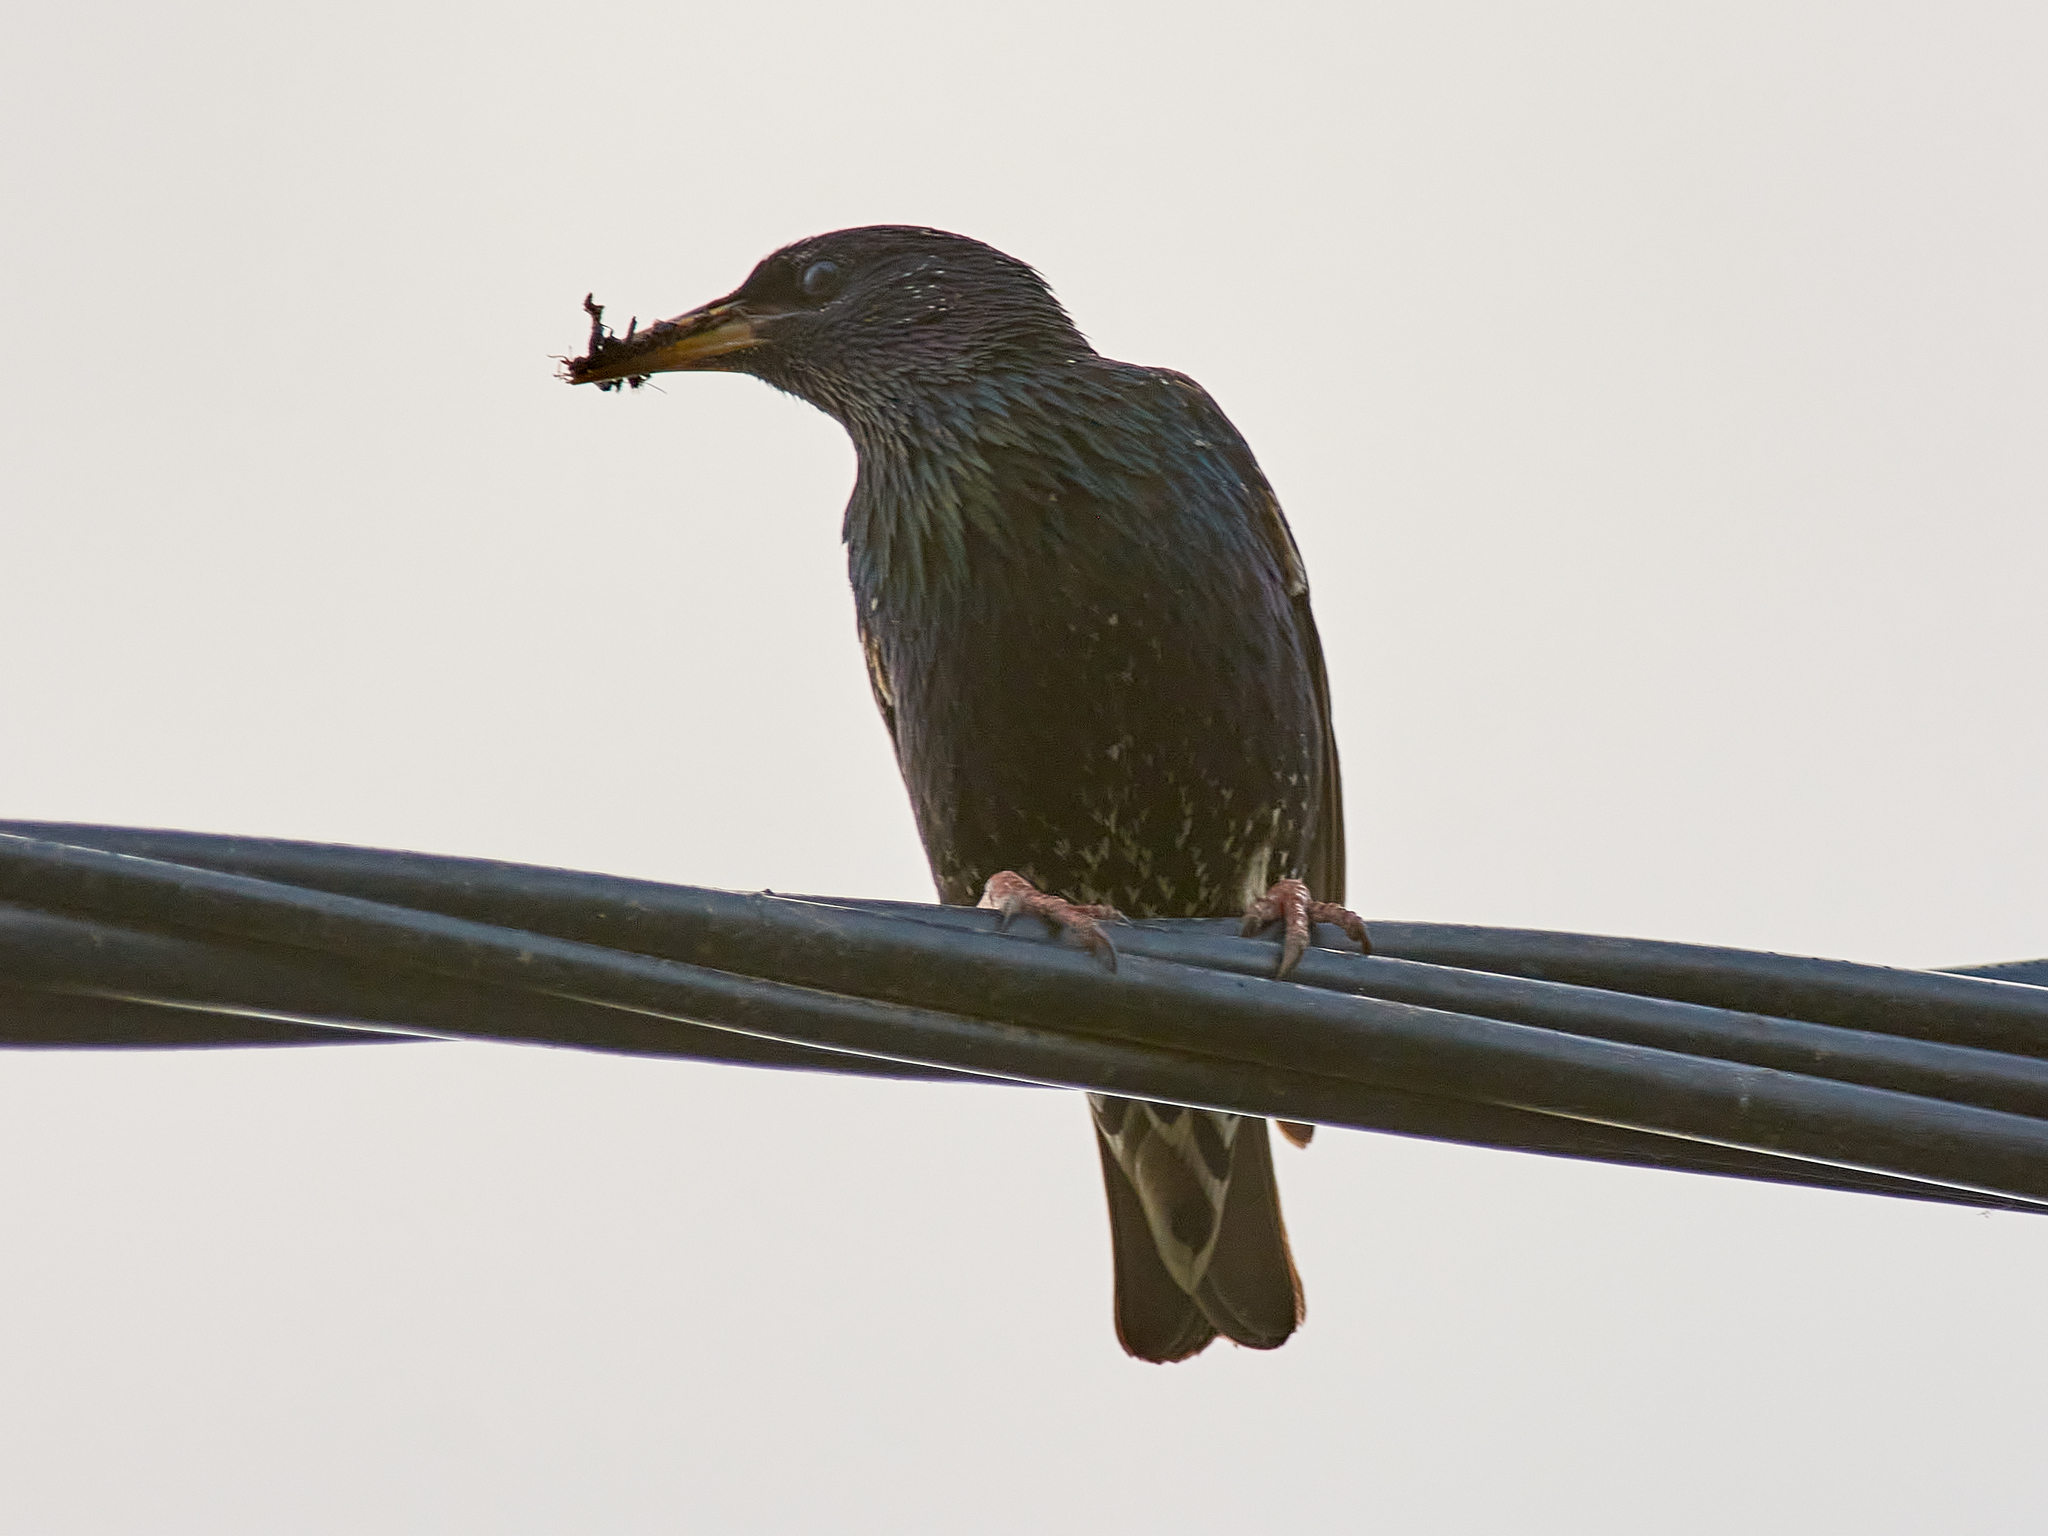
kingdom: Animalia
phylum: Chordata
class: Aves
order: Passeriformes
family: Sturnidae
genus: Sturnus
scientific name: Sturnus vulgaris
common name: Common starling
